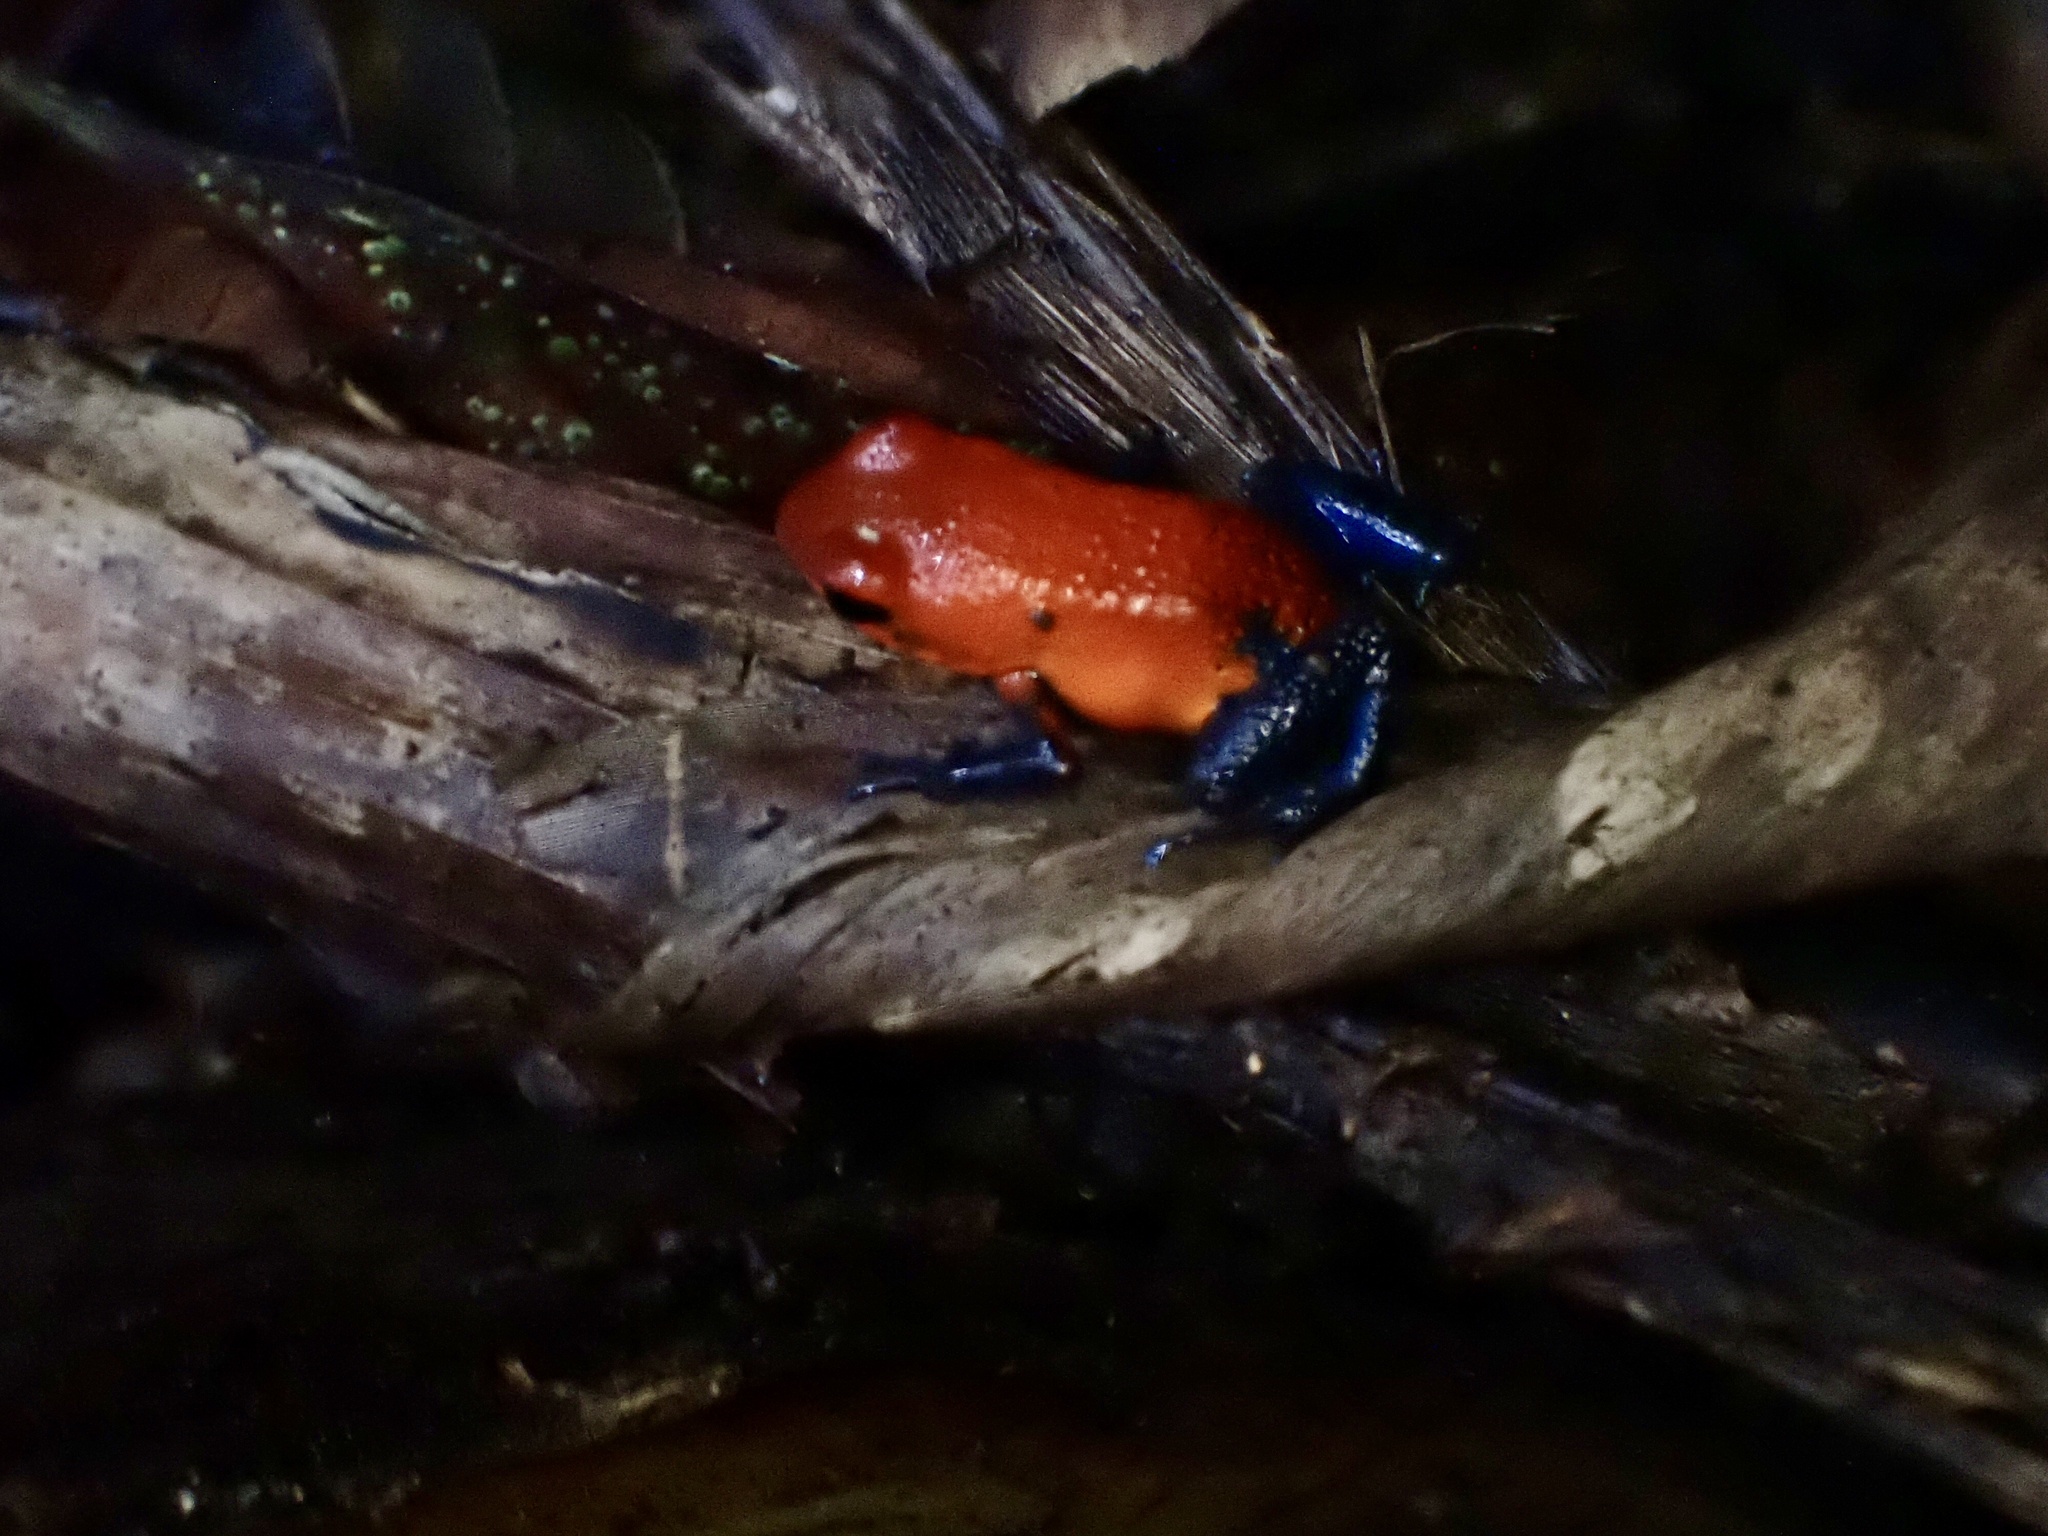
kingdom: Animalia
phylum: Chordata
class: Amphibia
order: Anura
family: Dendrobatidae
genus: Oophaga
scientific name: Oophaga pumilio
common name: Flaming poison frog
